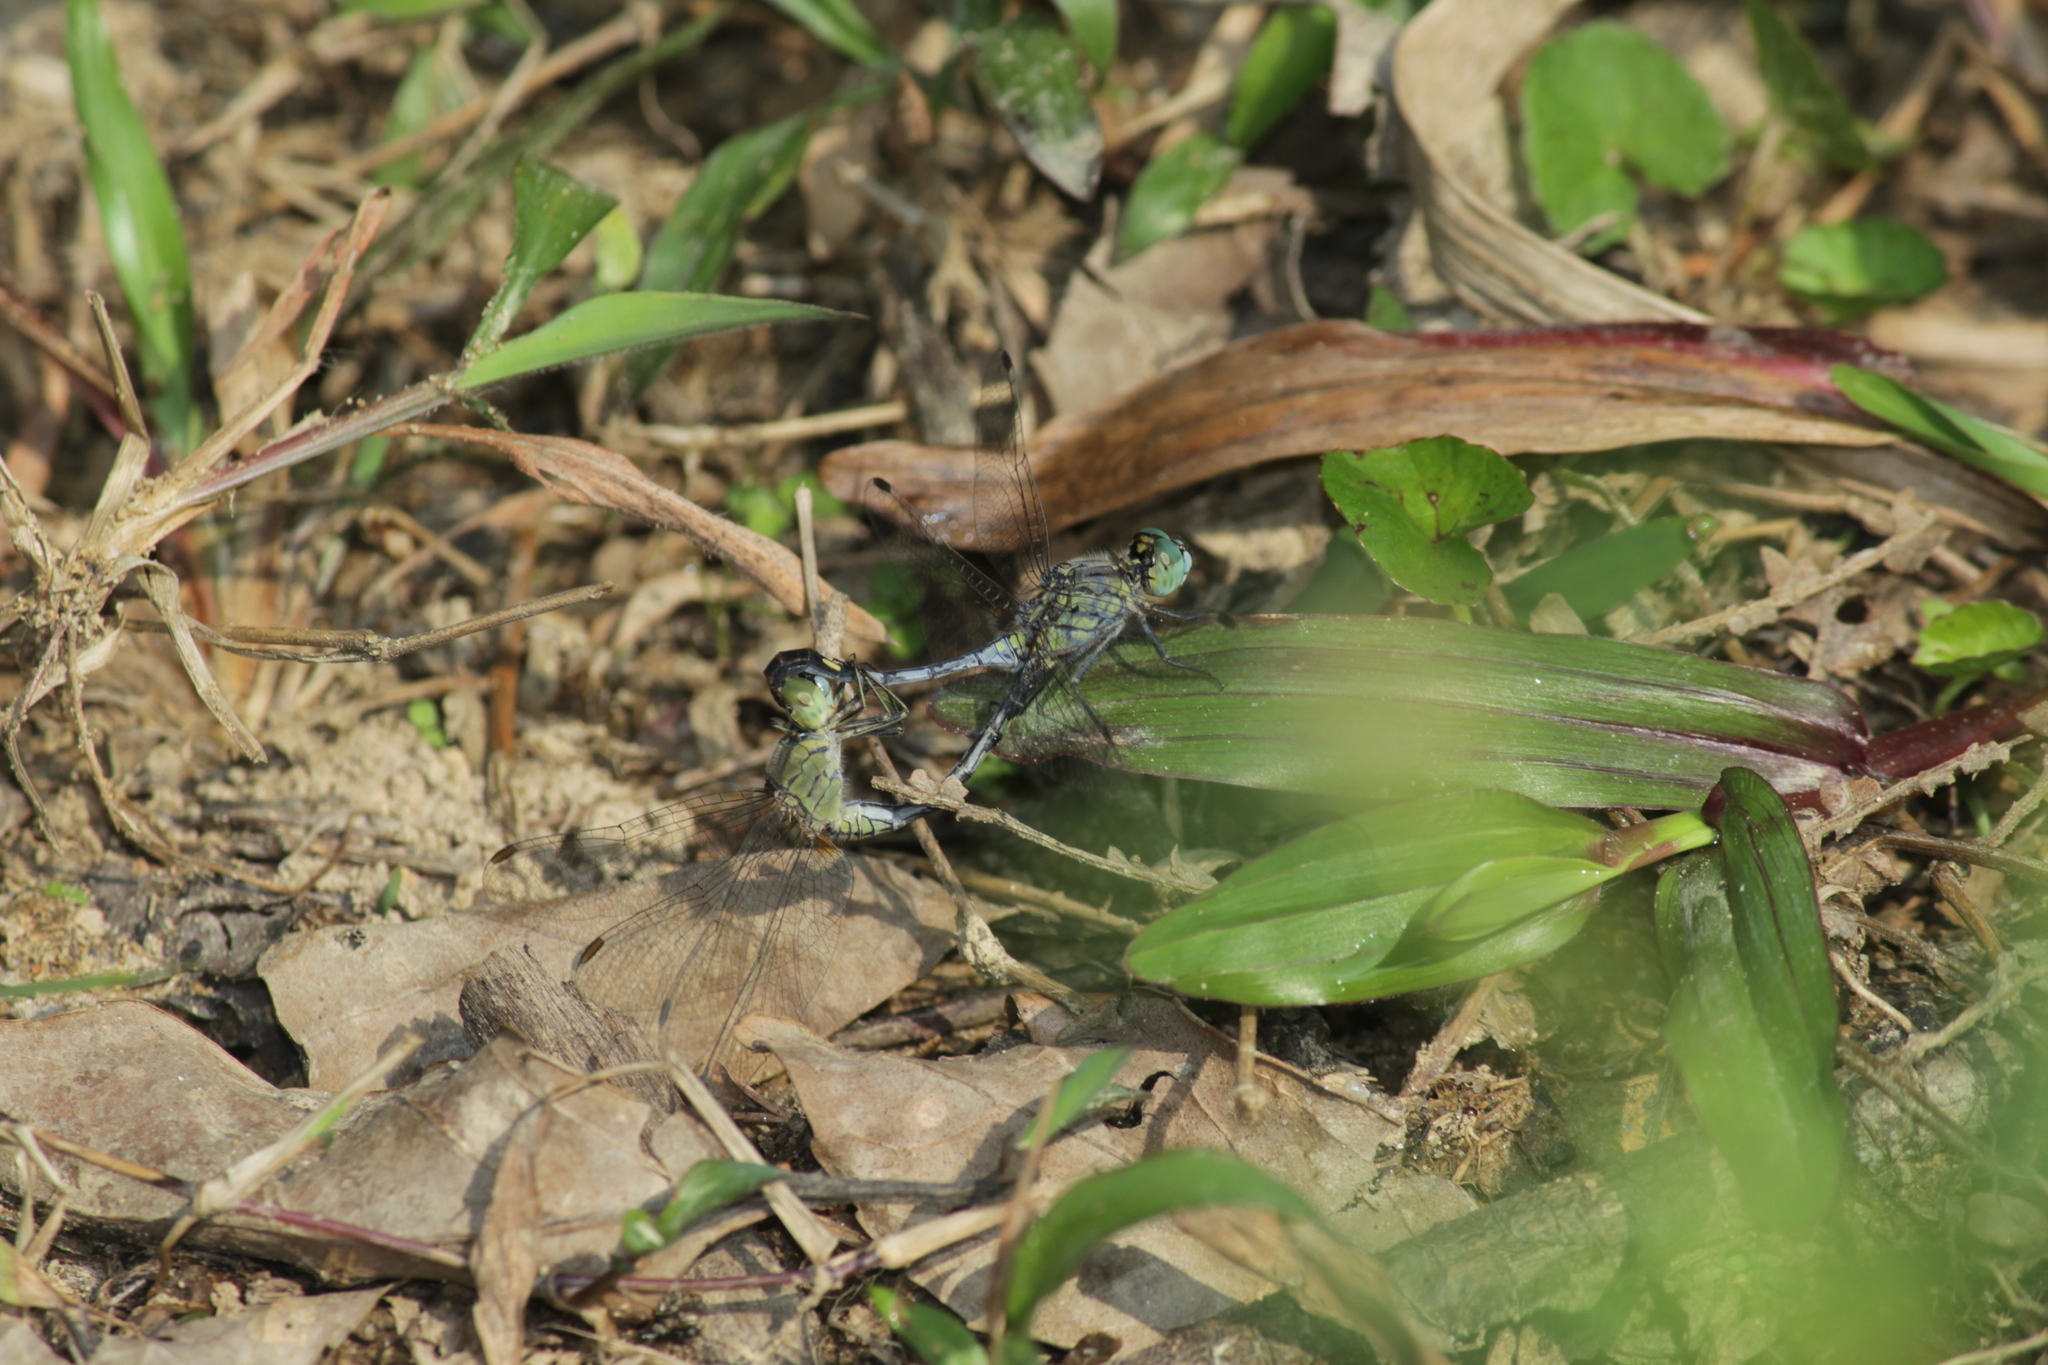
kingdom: Animalia
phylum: Arthropoda
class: Insecta
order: Odonata
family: Libellulidae
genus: Diplacodes
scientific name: Diplacodes trivialis
